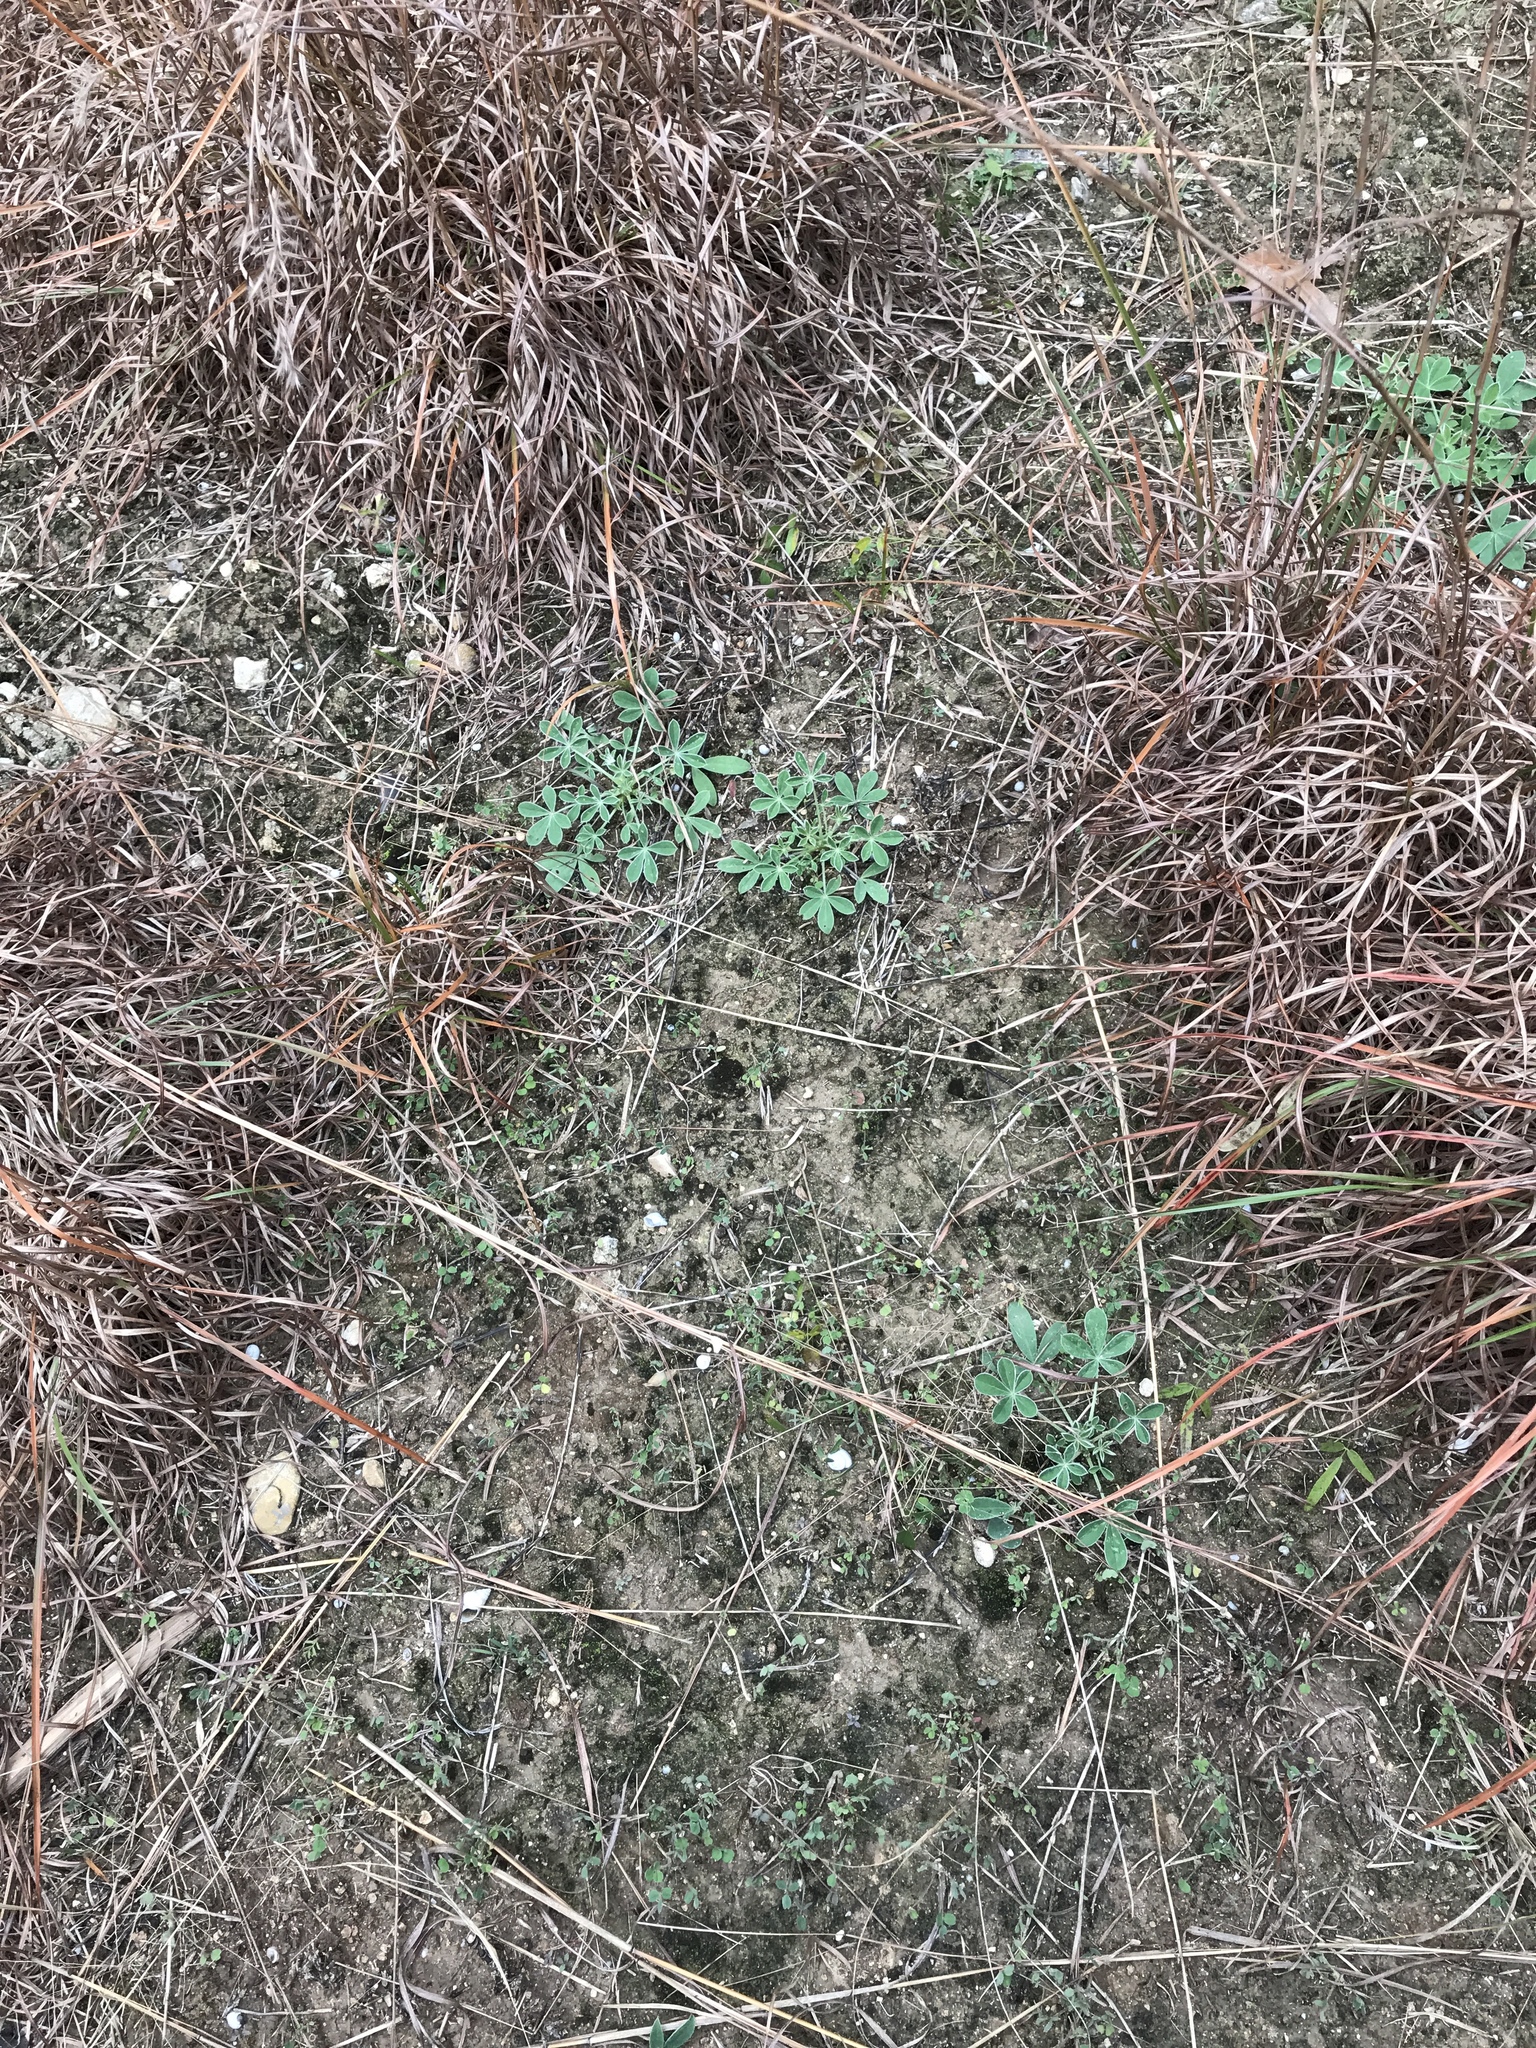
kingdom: Plantae
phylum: Tracheophyta
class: Magnoliopsida
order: Fabales
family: Fabaceae
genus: Lupinus
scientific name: Lupinus texensis
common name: Texas bluebonnet
